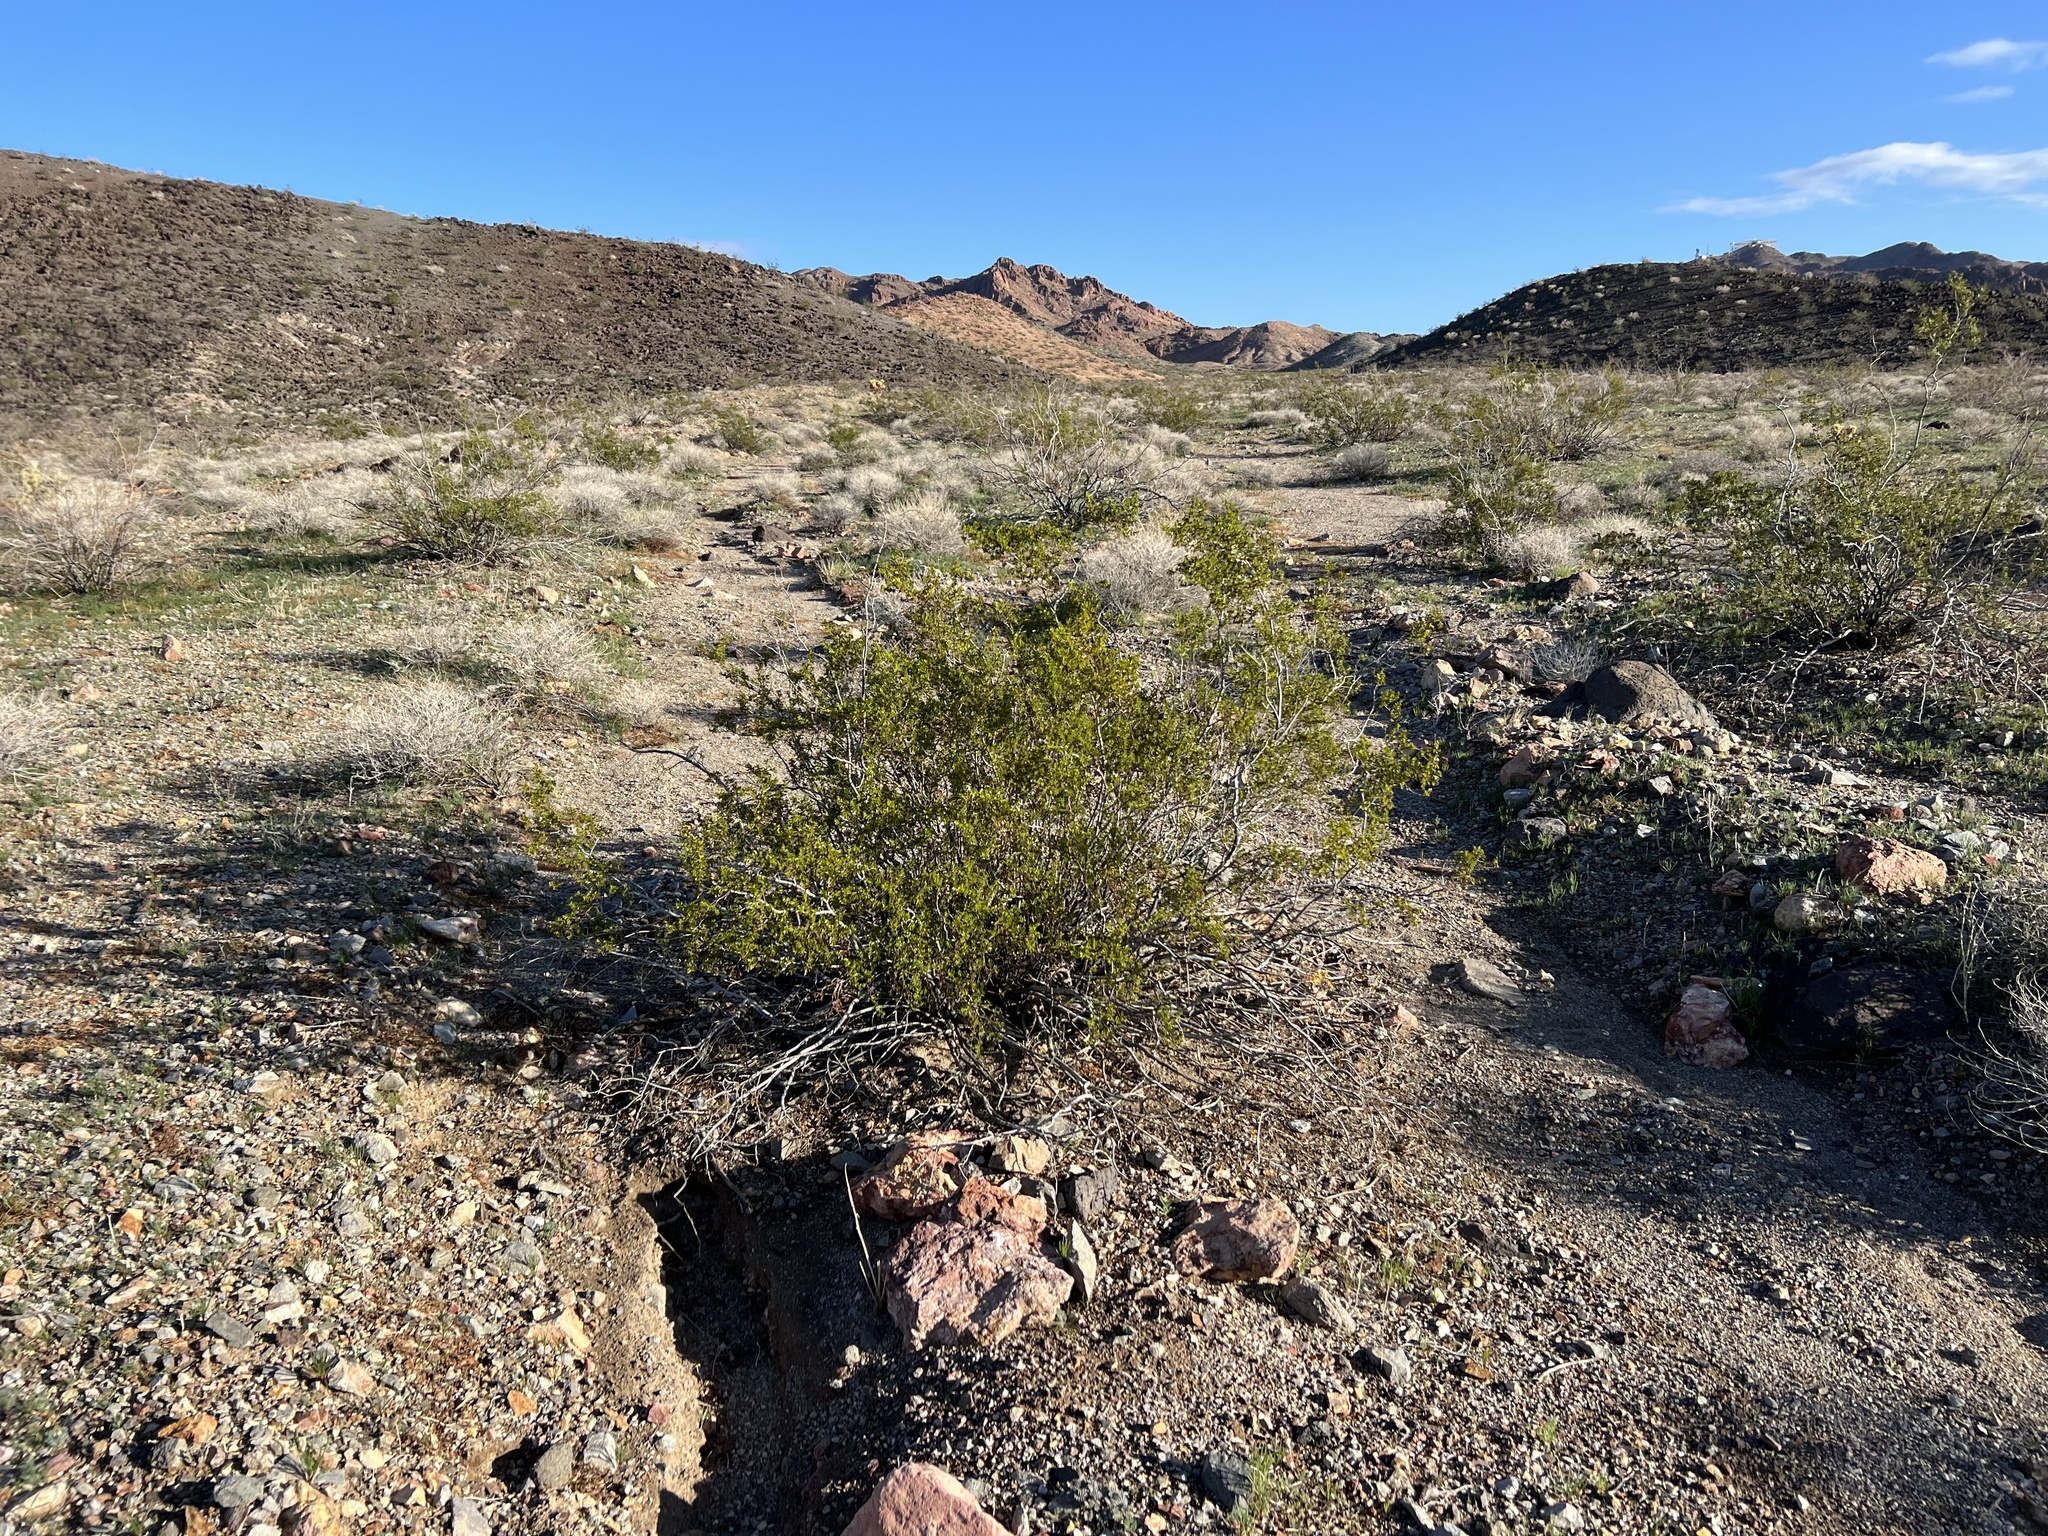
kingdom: Plantae
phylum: Tracheophyta
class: Magnoliopsida
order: Zygophyllales
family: Zygophyllaceae
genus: Larrea
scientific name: Larrea tridentata
